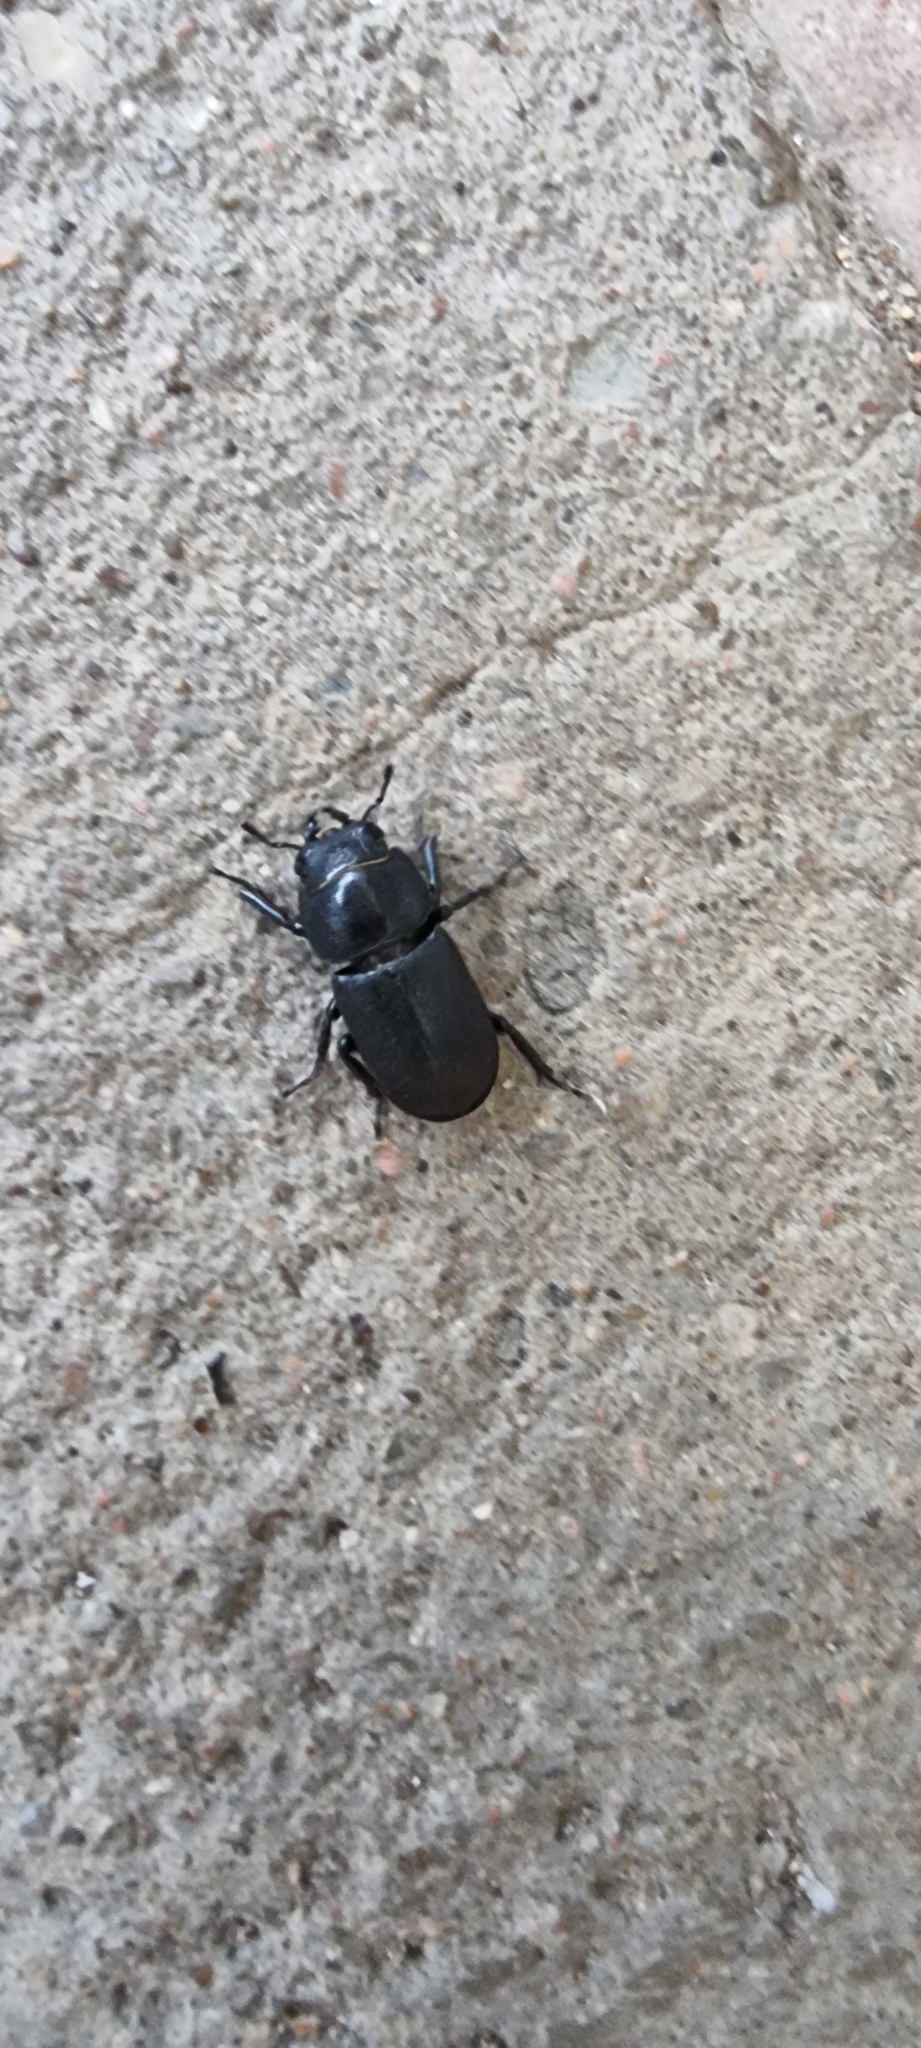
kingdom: Animalia
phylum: Arthropoda
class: Insecta
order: Coleoptera
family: Lucanidae
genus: Dorcus
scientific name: Dorcus parallelipipedus
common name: Lesser stag beetle
